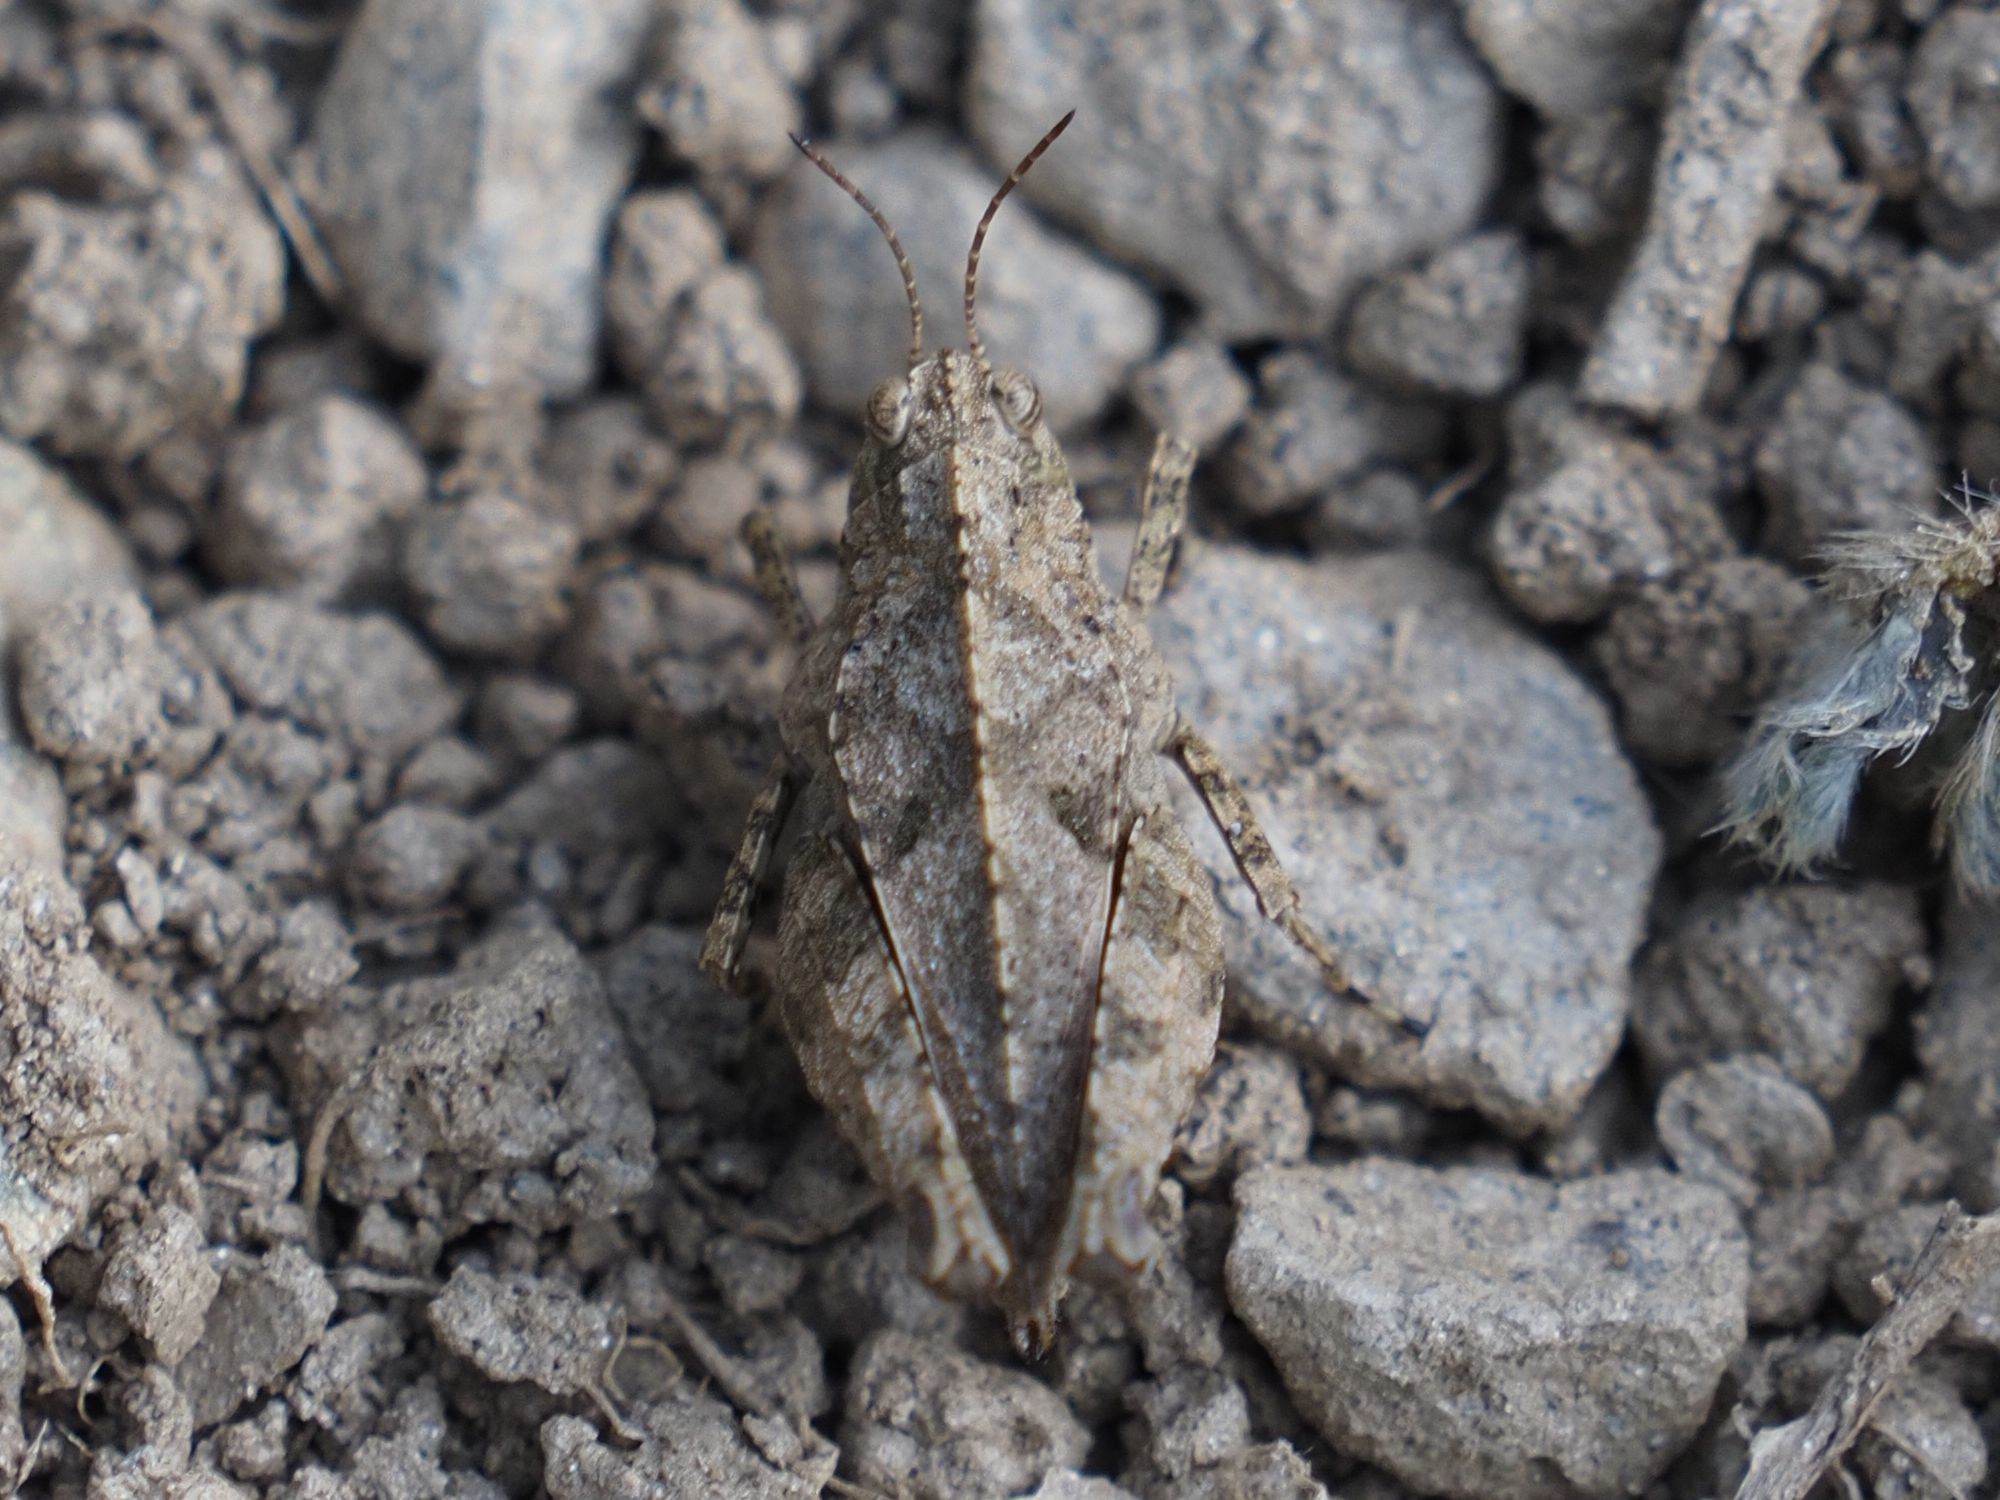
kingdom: Animalia
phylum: Arthropoda
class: Insecta
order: Orthoptera
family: Tetrigidae
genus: Tetrix
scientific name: Tetrix tenuicornis
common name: Long-horned groundhopper
